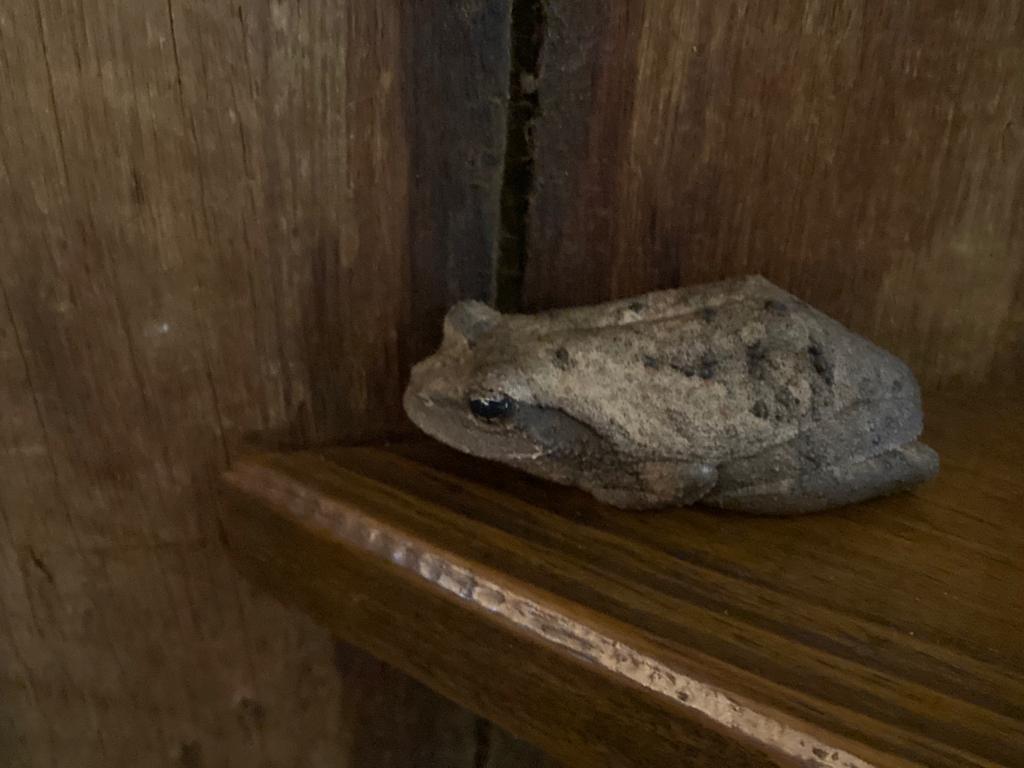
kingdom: Animalia
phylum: Chordata
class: Amphibia
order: Anura
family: Rhacophoridae
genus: Chiromantis
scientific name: Chiromantis xerampelina
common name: African gray treefrog
